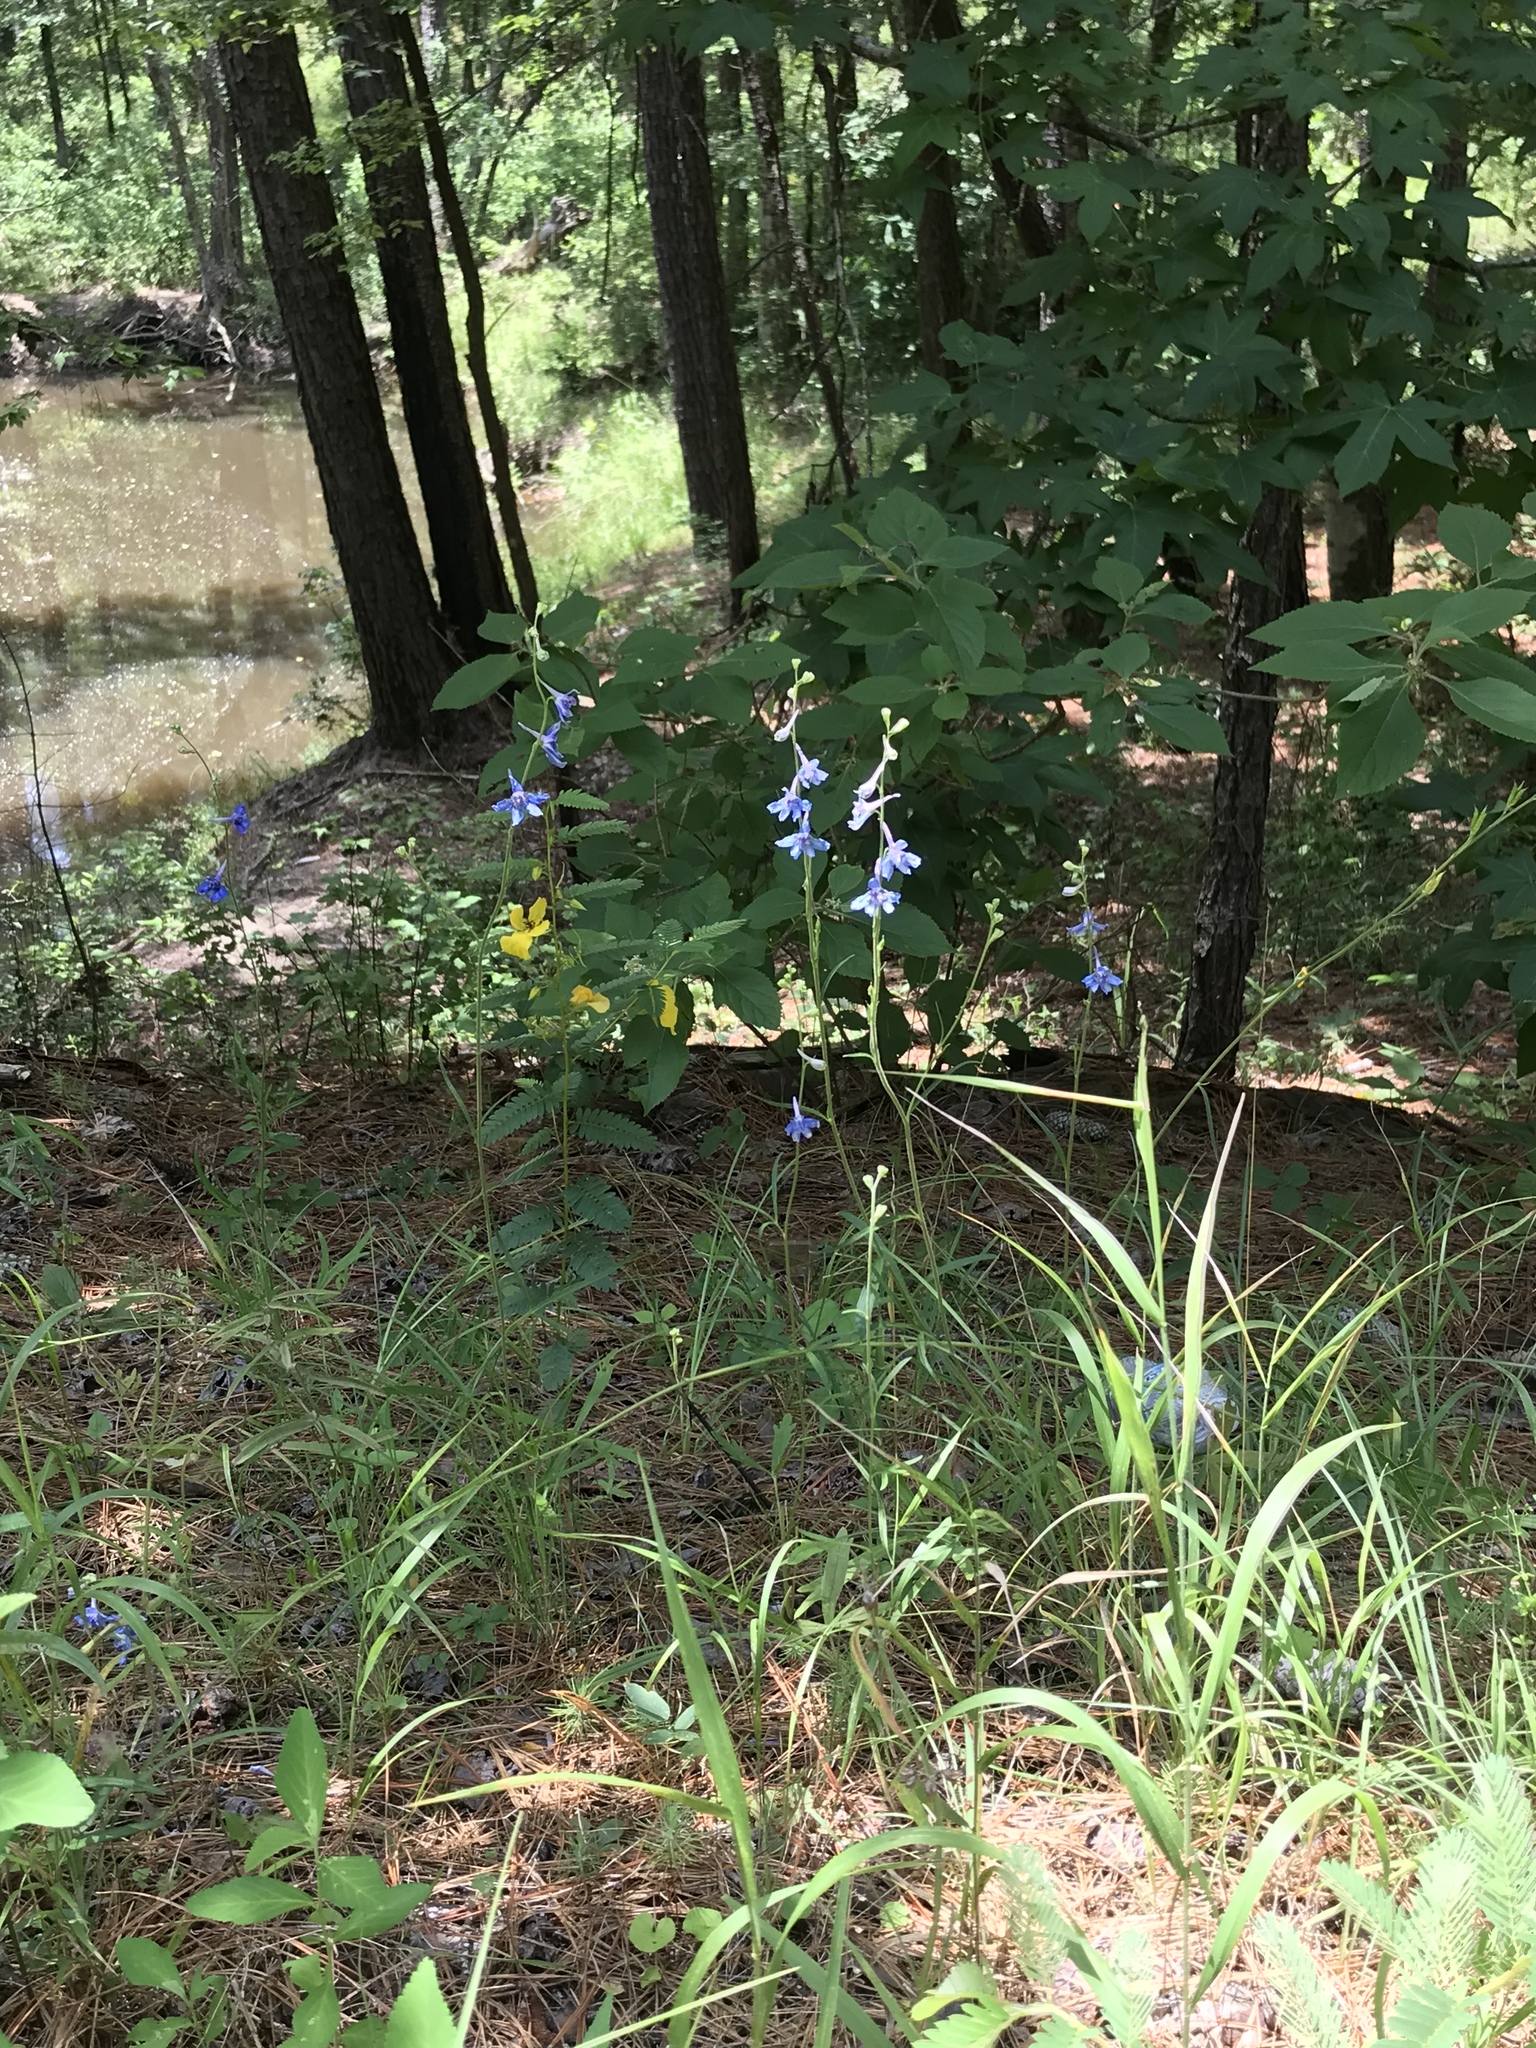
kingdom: Plantae
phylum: Tracheophyta
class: Magnoliopsida
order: Ranunculales
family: Ranunculaceae
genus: Delphinium
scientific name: Delphinium carolinianum
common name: Carolina larkspur
